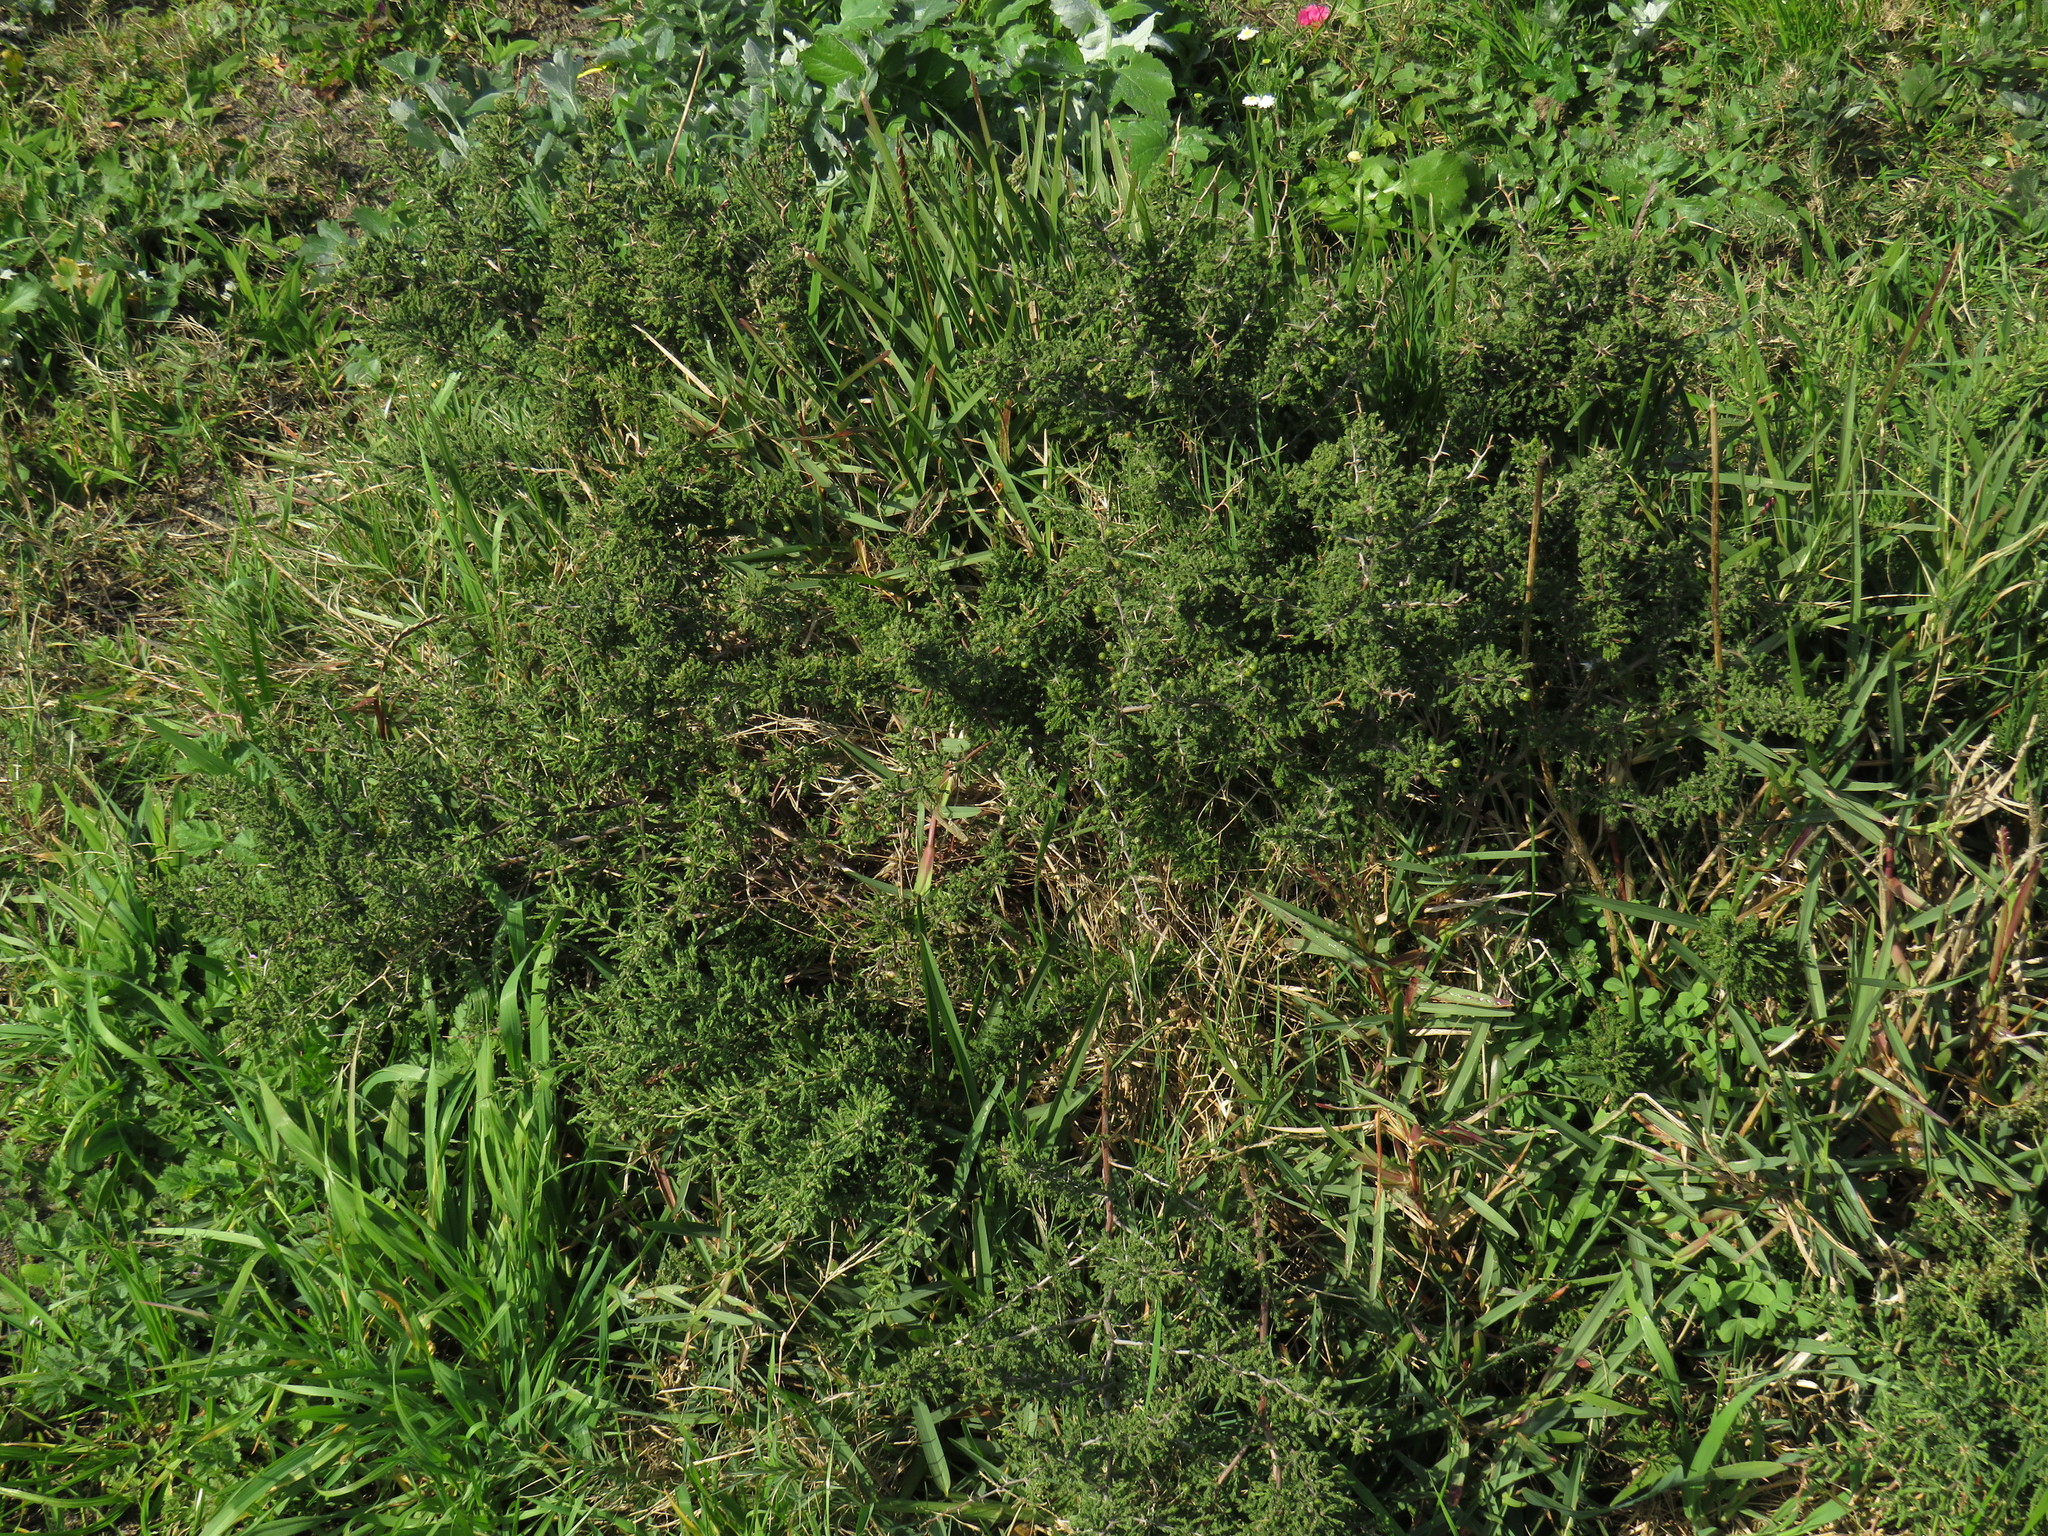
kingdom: Plantae
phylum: Tracheophyta
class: Liliopsida
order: Asparagales
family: Asparagaceae
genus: Asparagus
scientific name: Asparagus capensis
